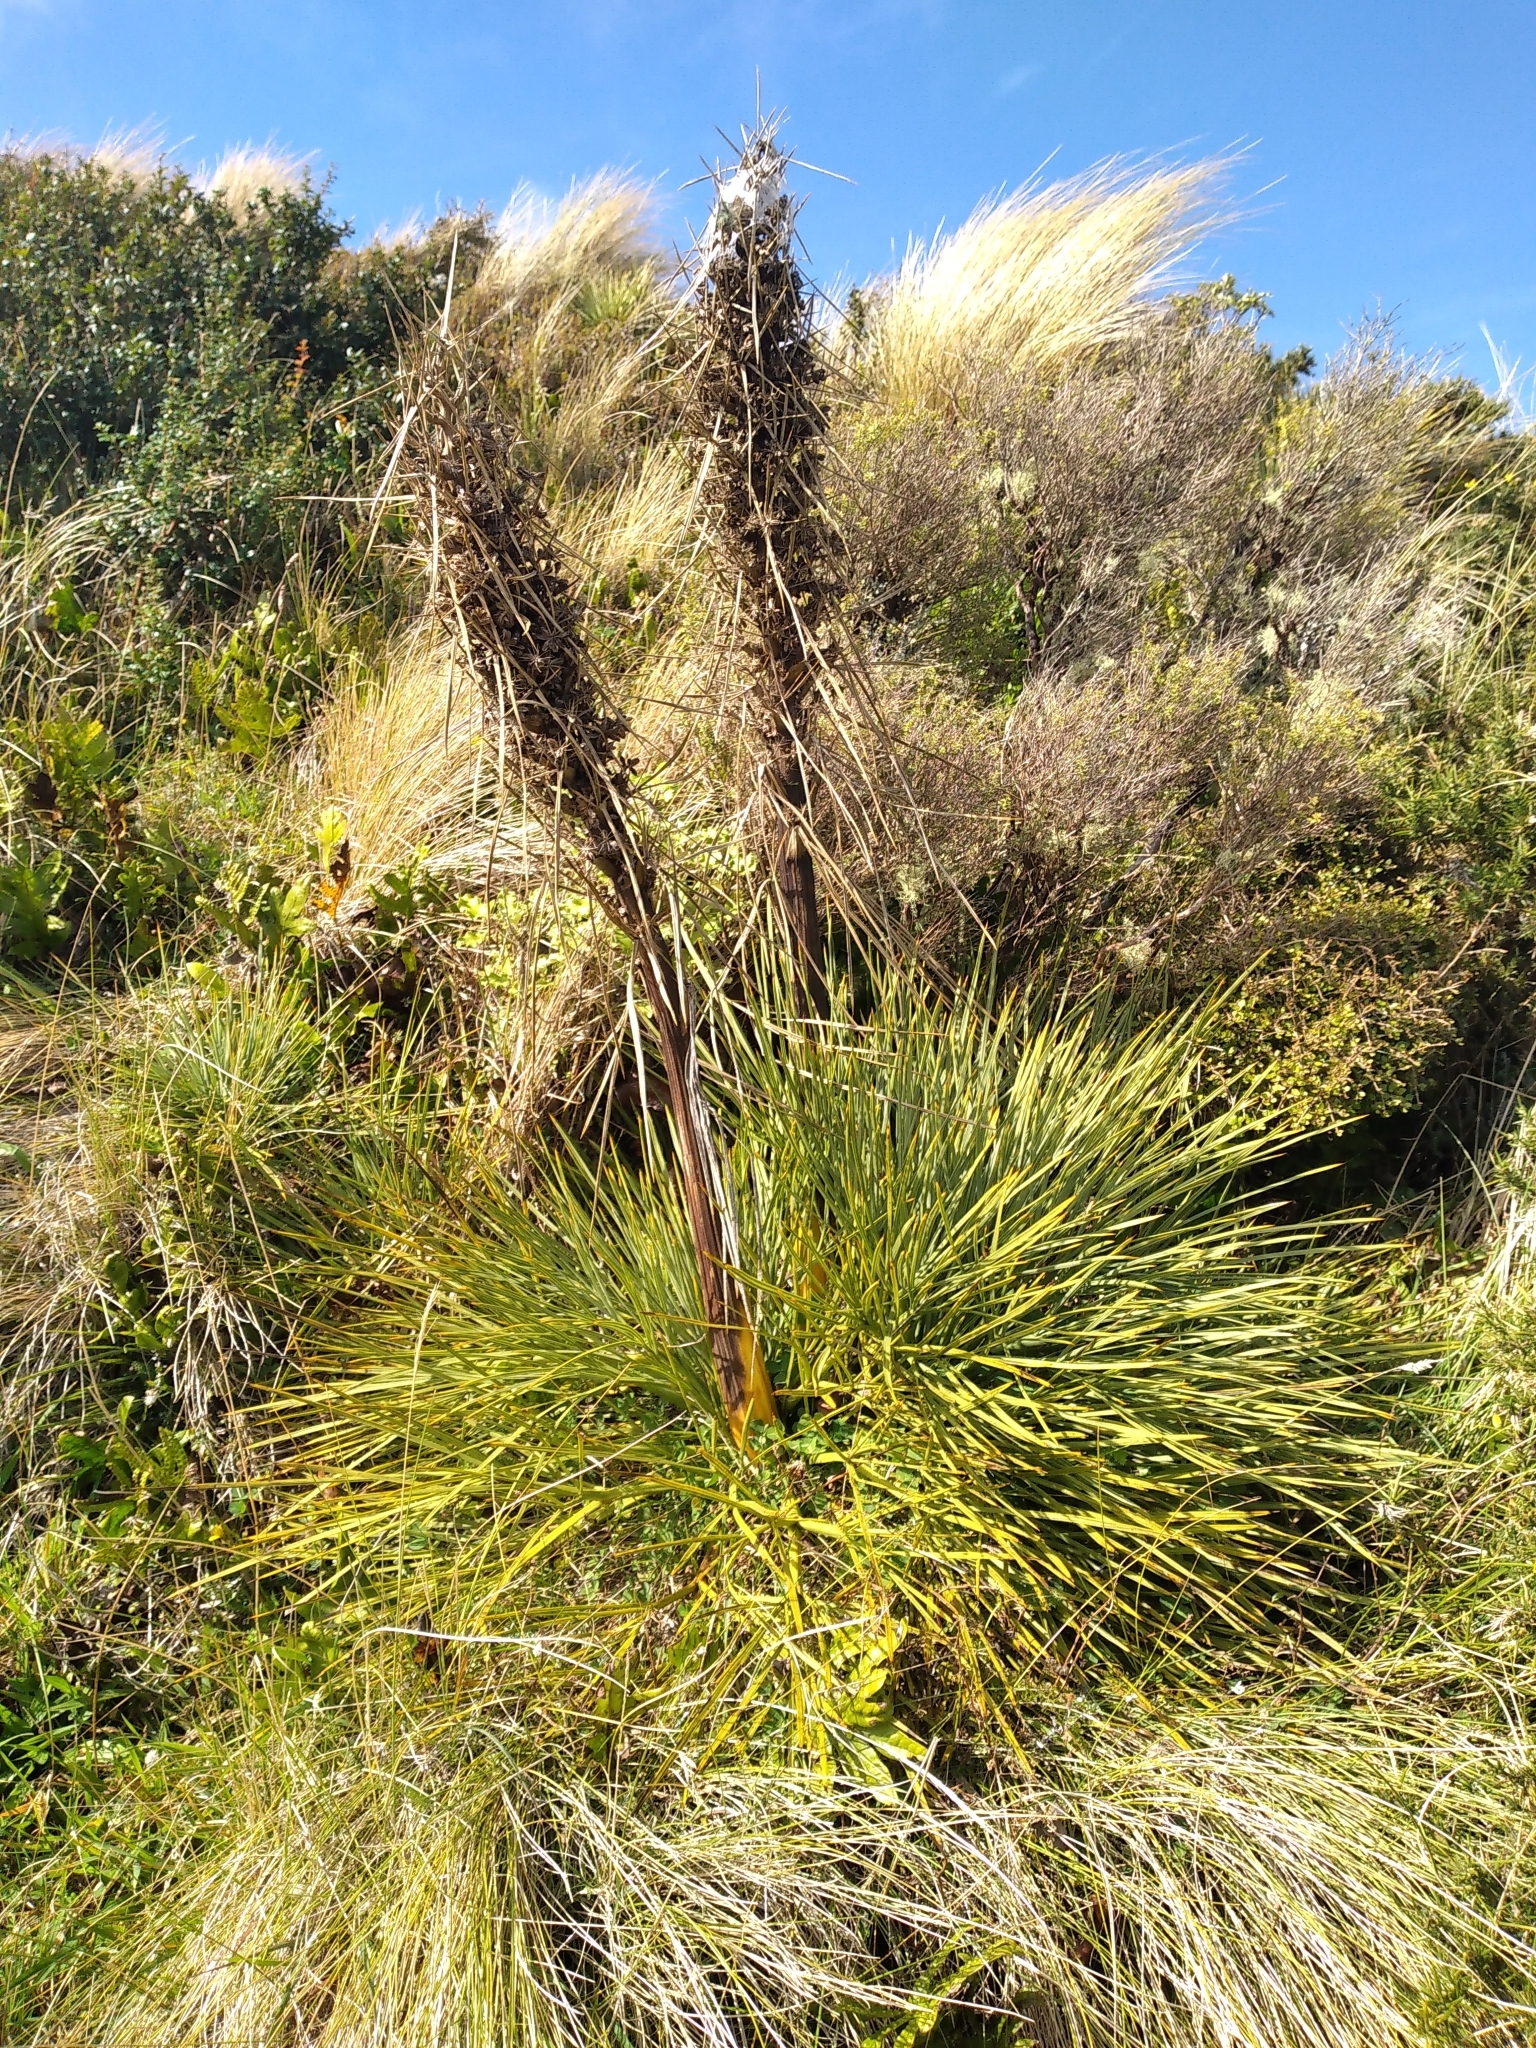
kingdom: Plantae
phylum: Tracheophyta
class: Magnoliopsida
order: Apiales
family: Apiaceae
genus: Aciphylla
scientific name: Aciphylla squarrosa
